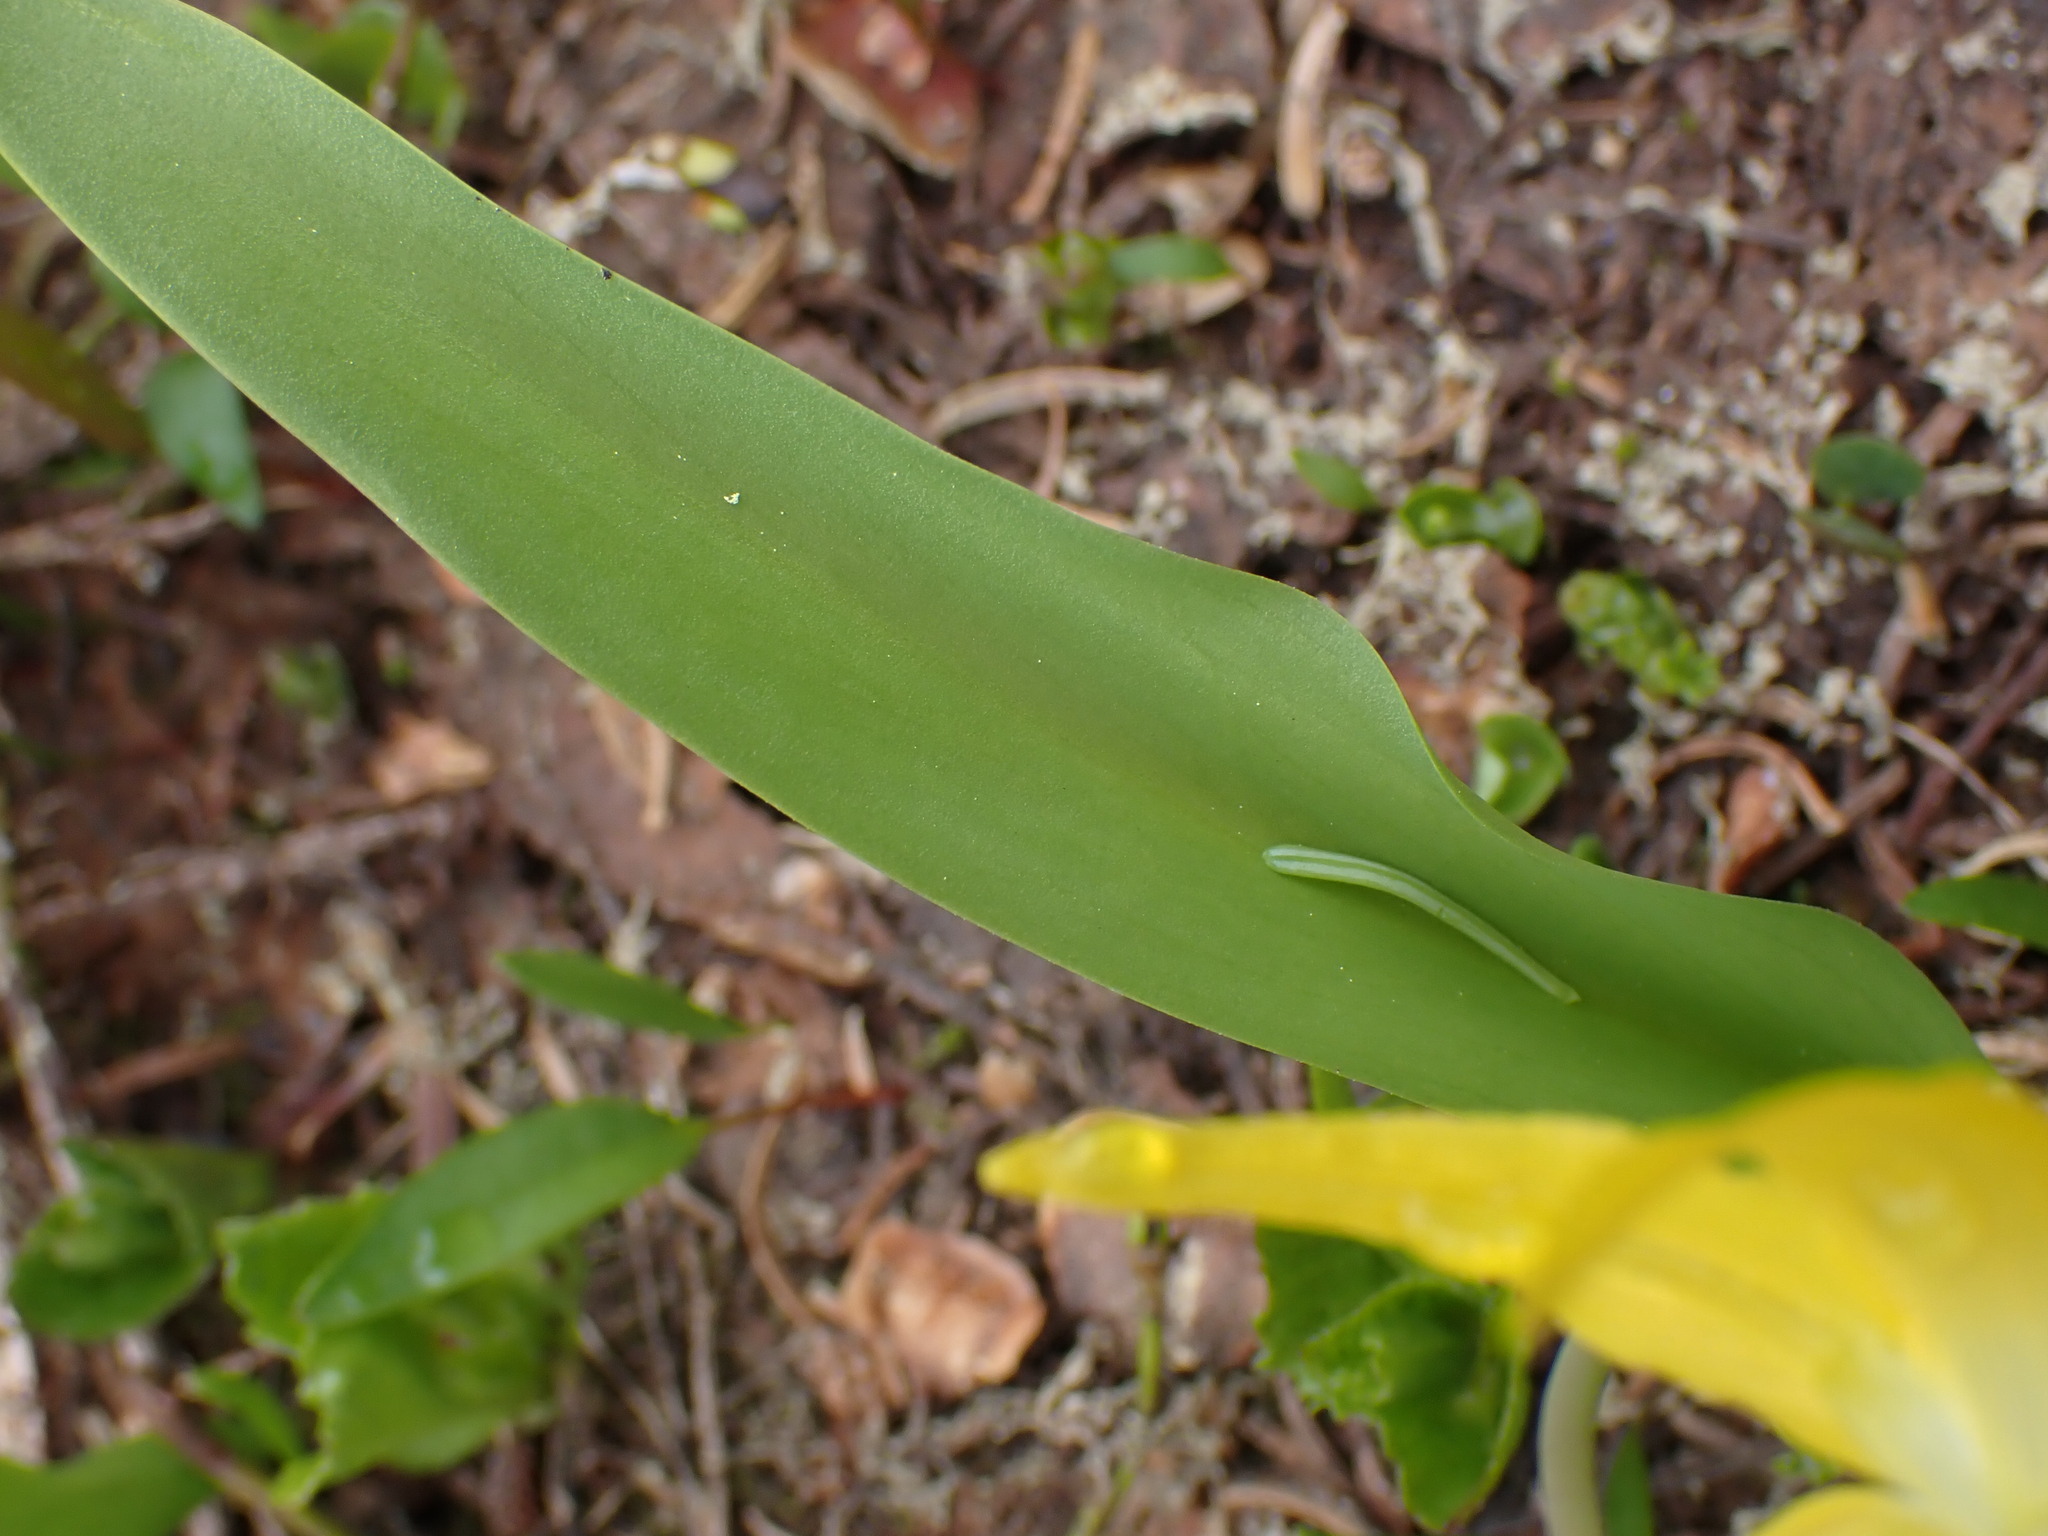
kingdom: Plantae
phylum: Tracheophyta
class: Liliopsida
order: Liliales
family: Liliaceae
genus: Erythronium
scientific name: Erythronium grandiflorum
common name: Avalanche-lily
